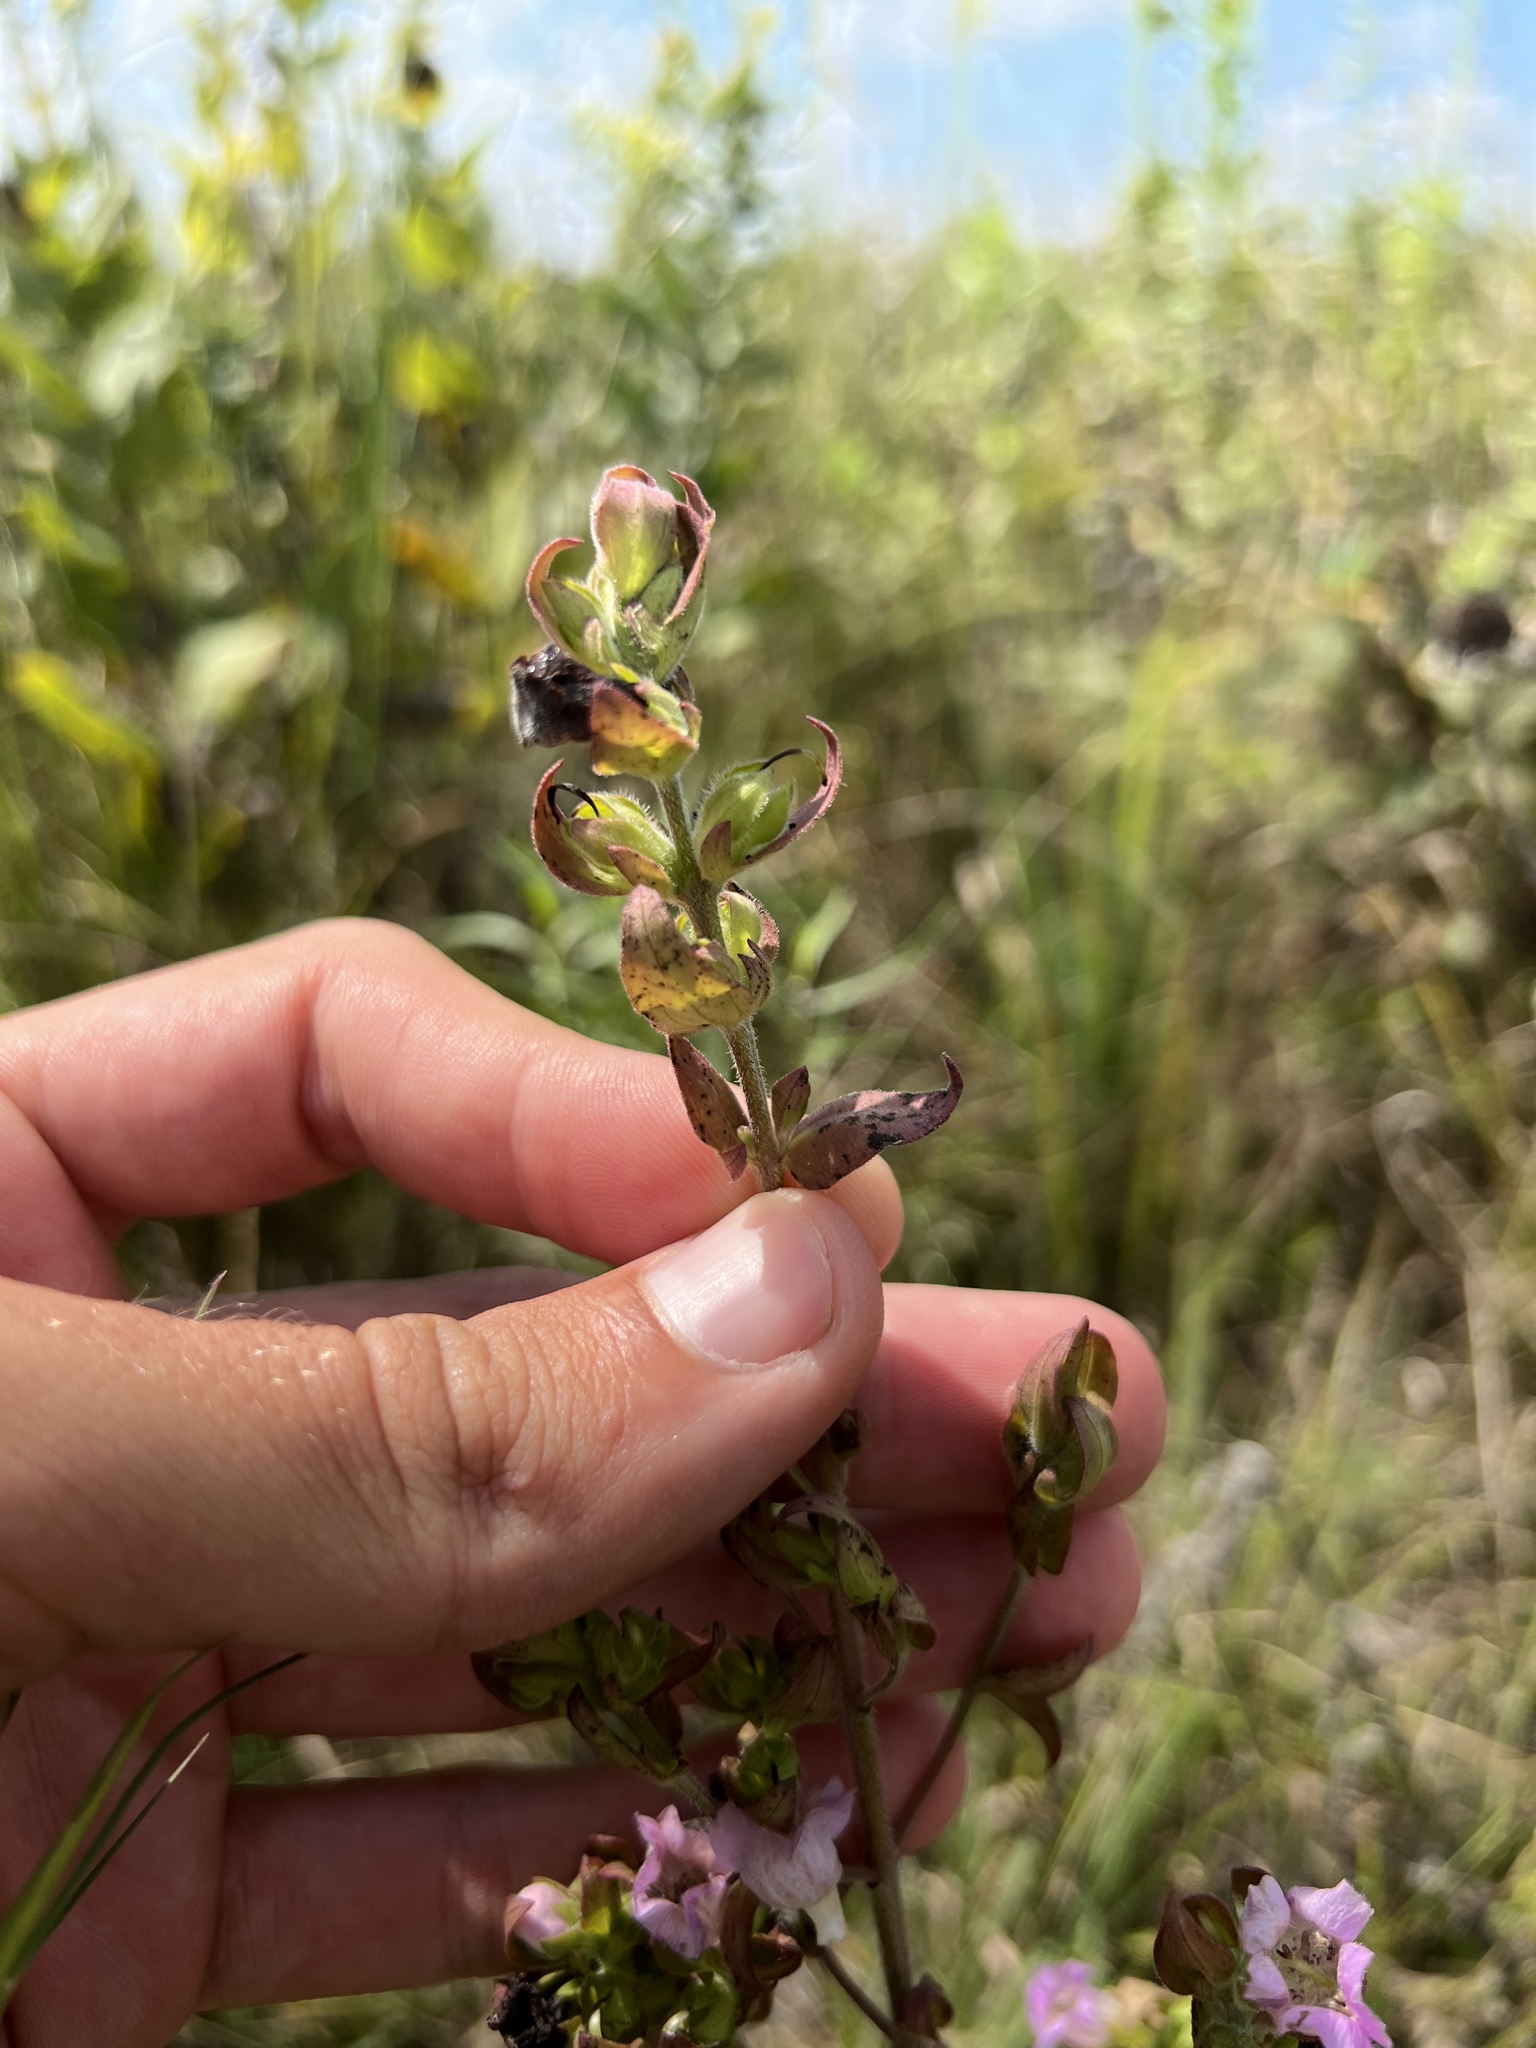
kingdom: Plantae
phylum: Tracheophyta
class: Magnoliopsida
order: Lamiales
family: Orobanchaceae
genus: Agalinis
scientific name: Agalinis auriculata
